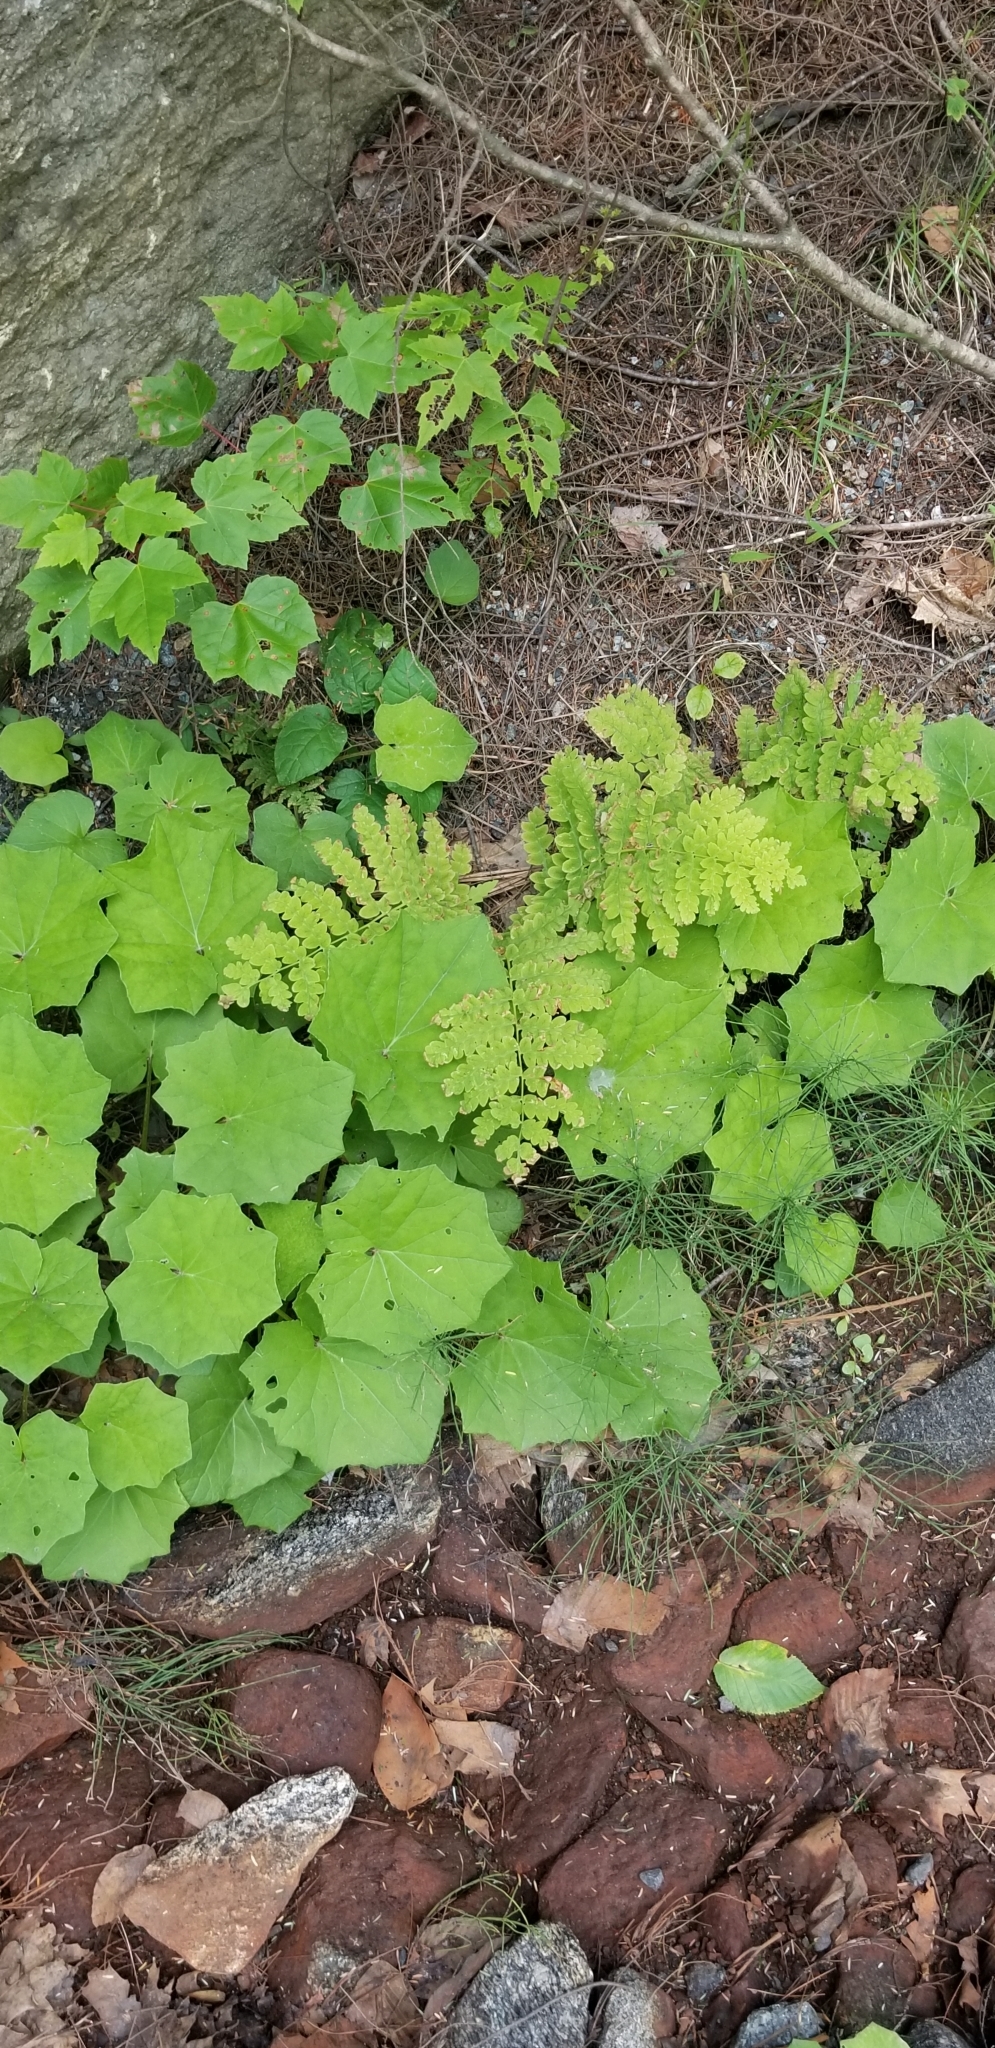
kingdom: Plantae
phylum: Tracheophyta
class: Polypodiopsida
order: Osmundales
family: Osmundaceae
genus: Claytosmunda
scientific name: Claytosmunda claytoniana
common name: Clayton's fern
